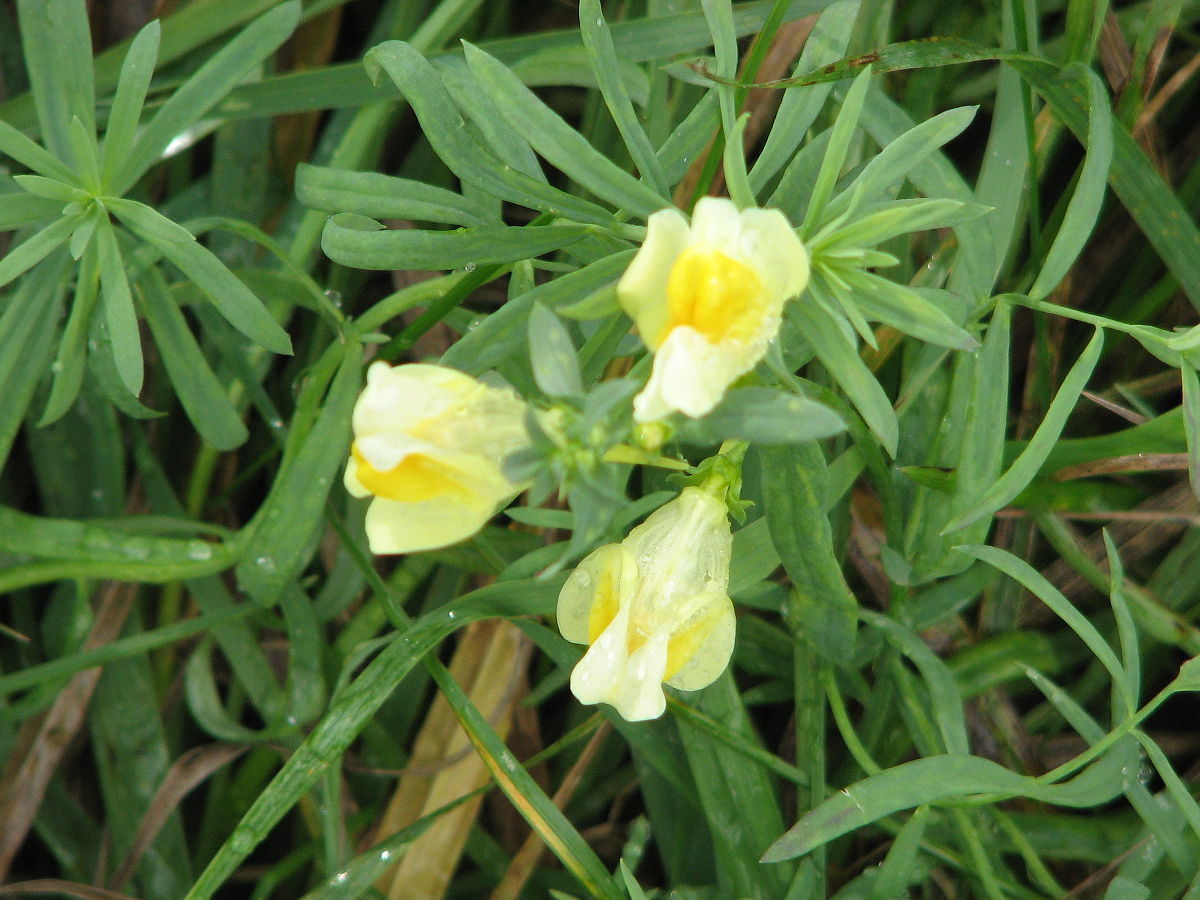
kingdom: Plantae
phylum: Tracheophyta
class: Magnoliopsida
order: Lamiales
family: Plantaginaceae
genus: Linaria
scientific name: Linaria vulgaris
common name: Butter and eggs
